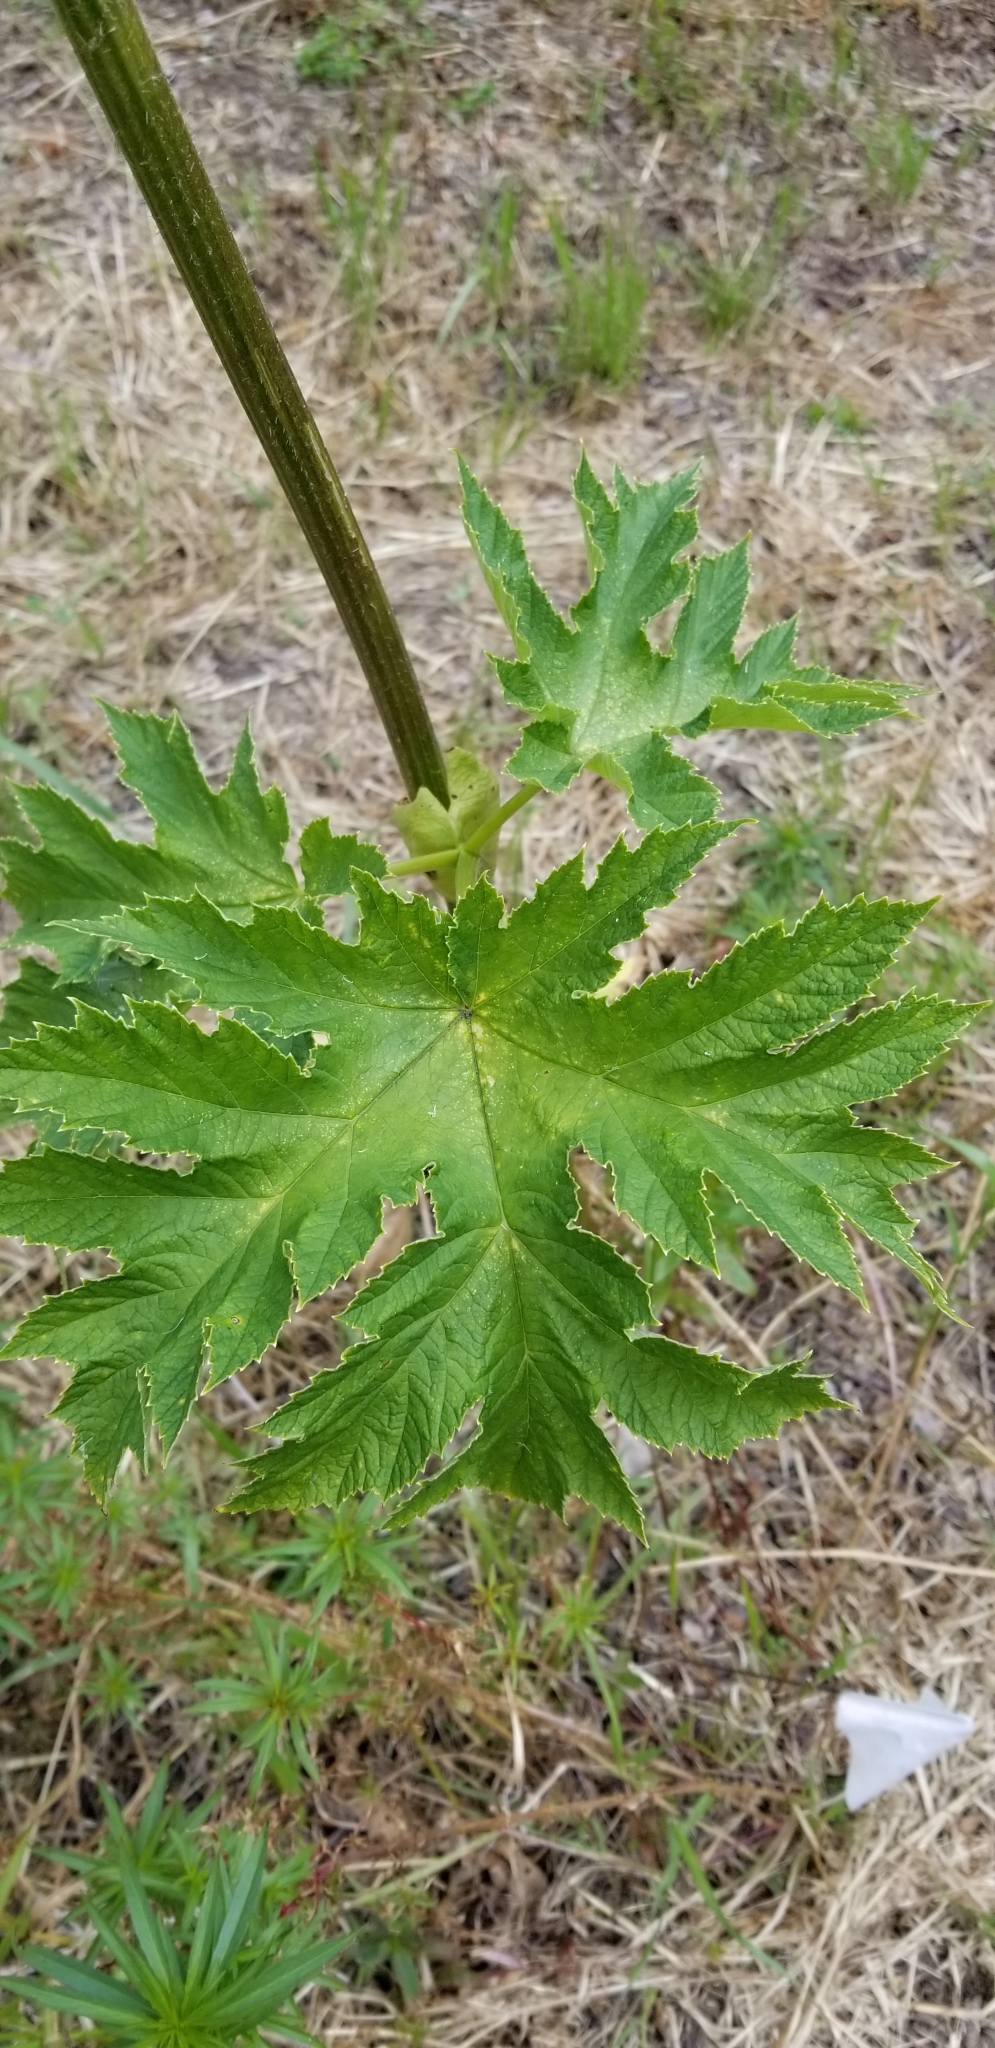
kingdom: Plantae
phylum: Tracheophyta
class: Magnoliopsida
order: Apiales
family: Apiaceae
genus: Heracleum
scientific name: Heracleum maximum
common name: American cow parsnip
